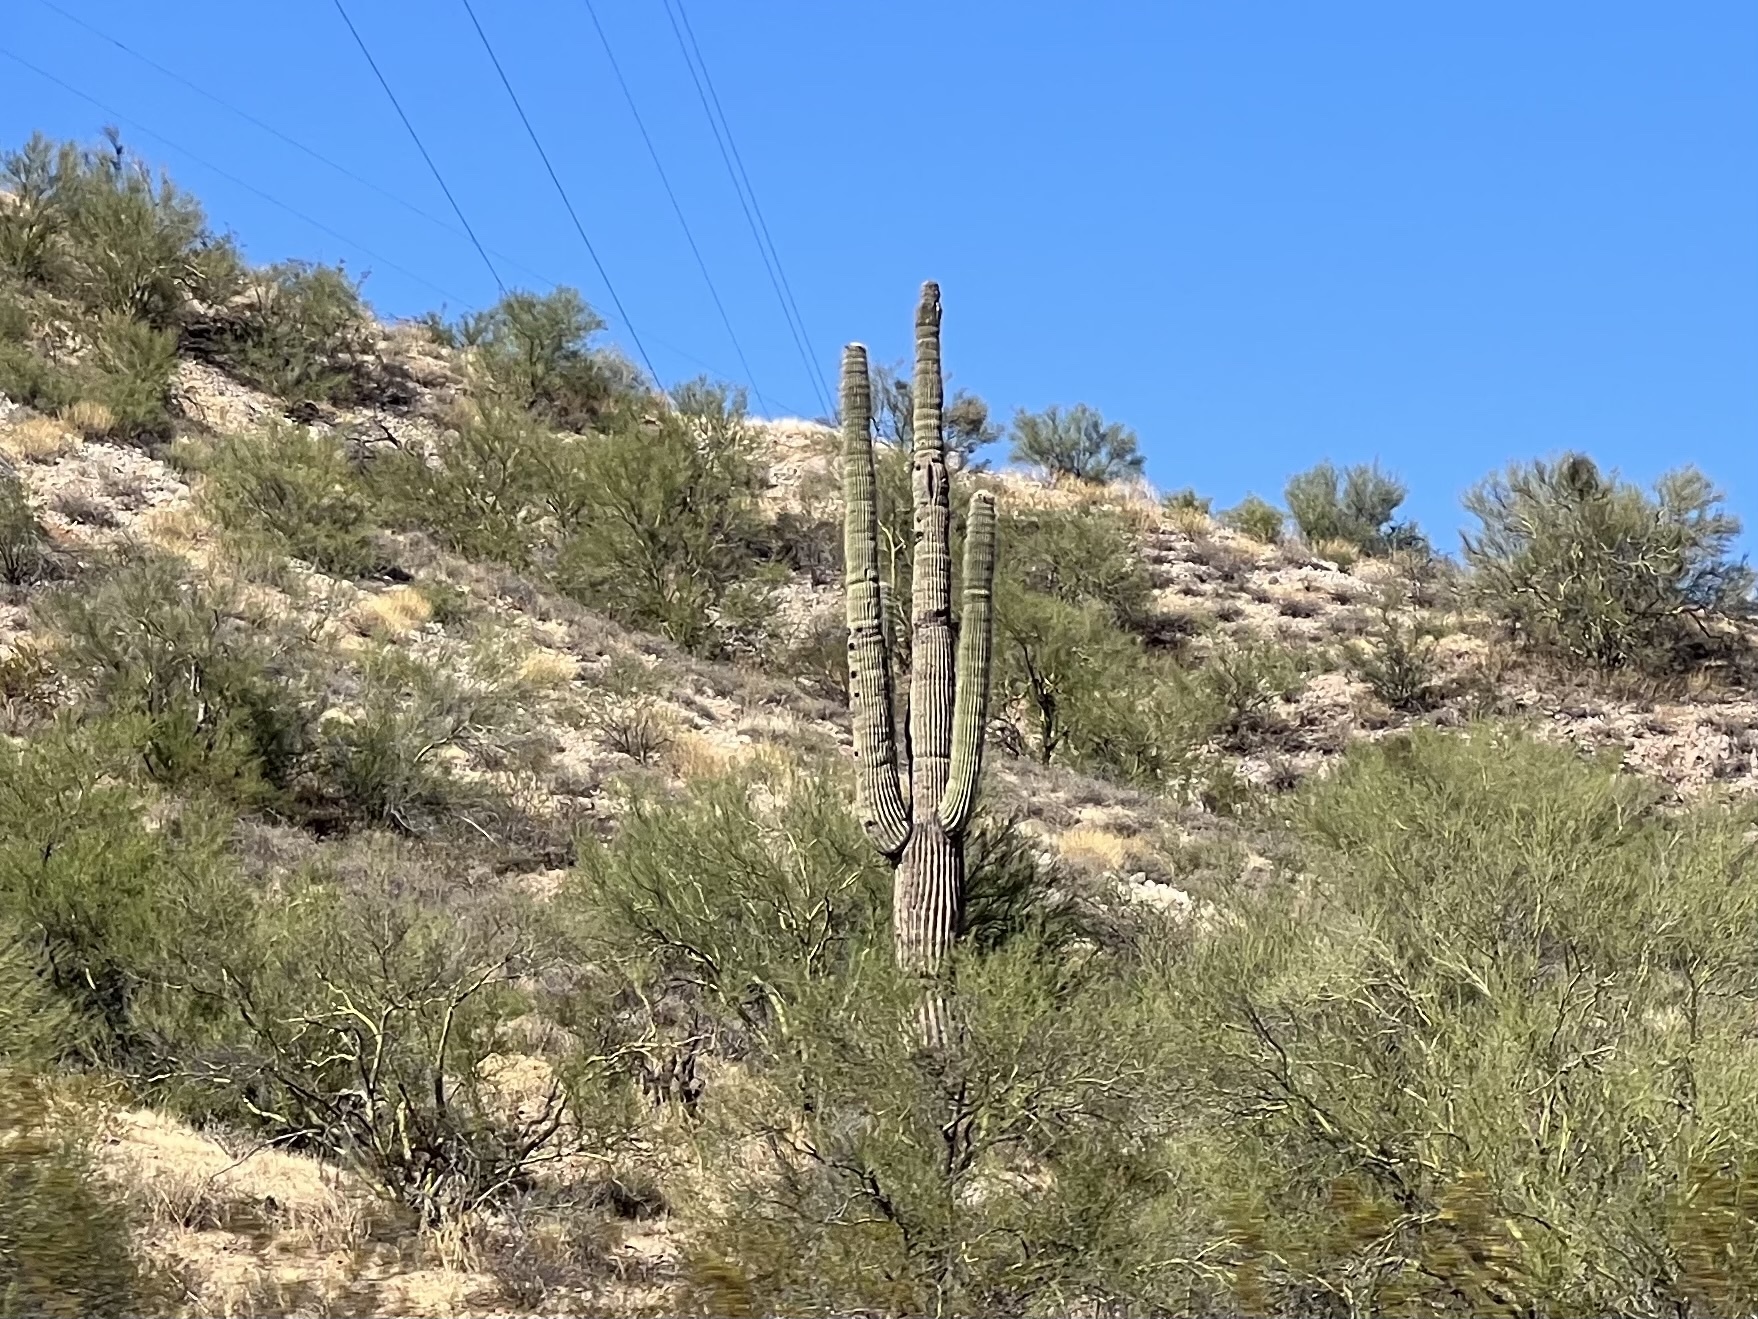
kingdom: Plantae
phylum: Tracheophyta
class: Magnoliopsida
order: Caryophyllales
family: Cactaceae
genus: Carnegiea
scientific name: Carnegiea gigantea
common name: Saguaro
